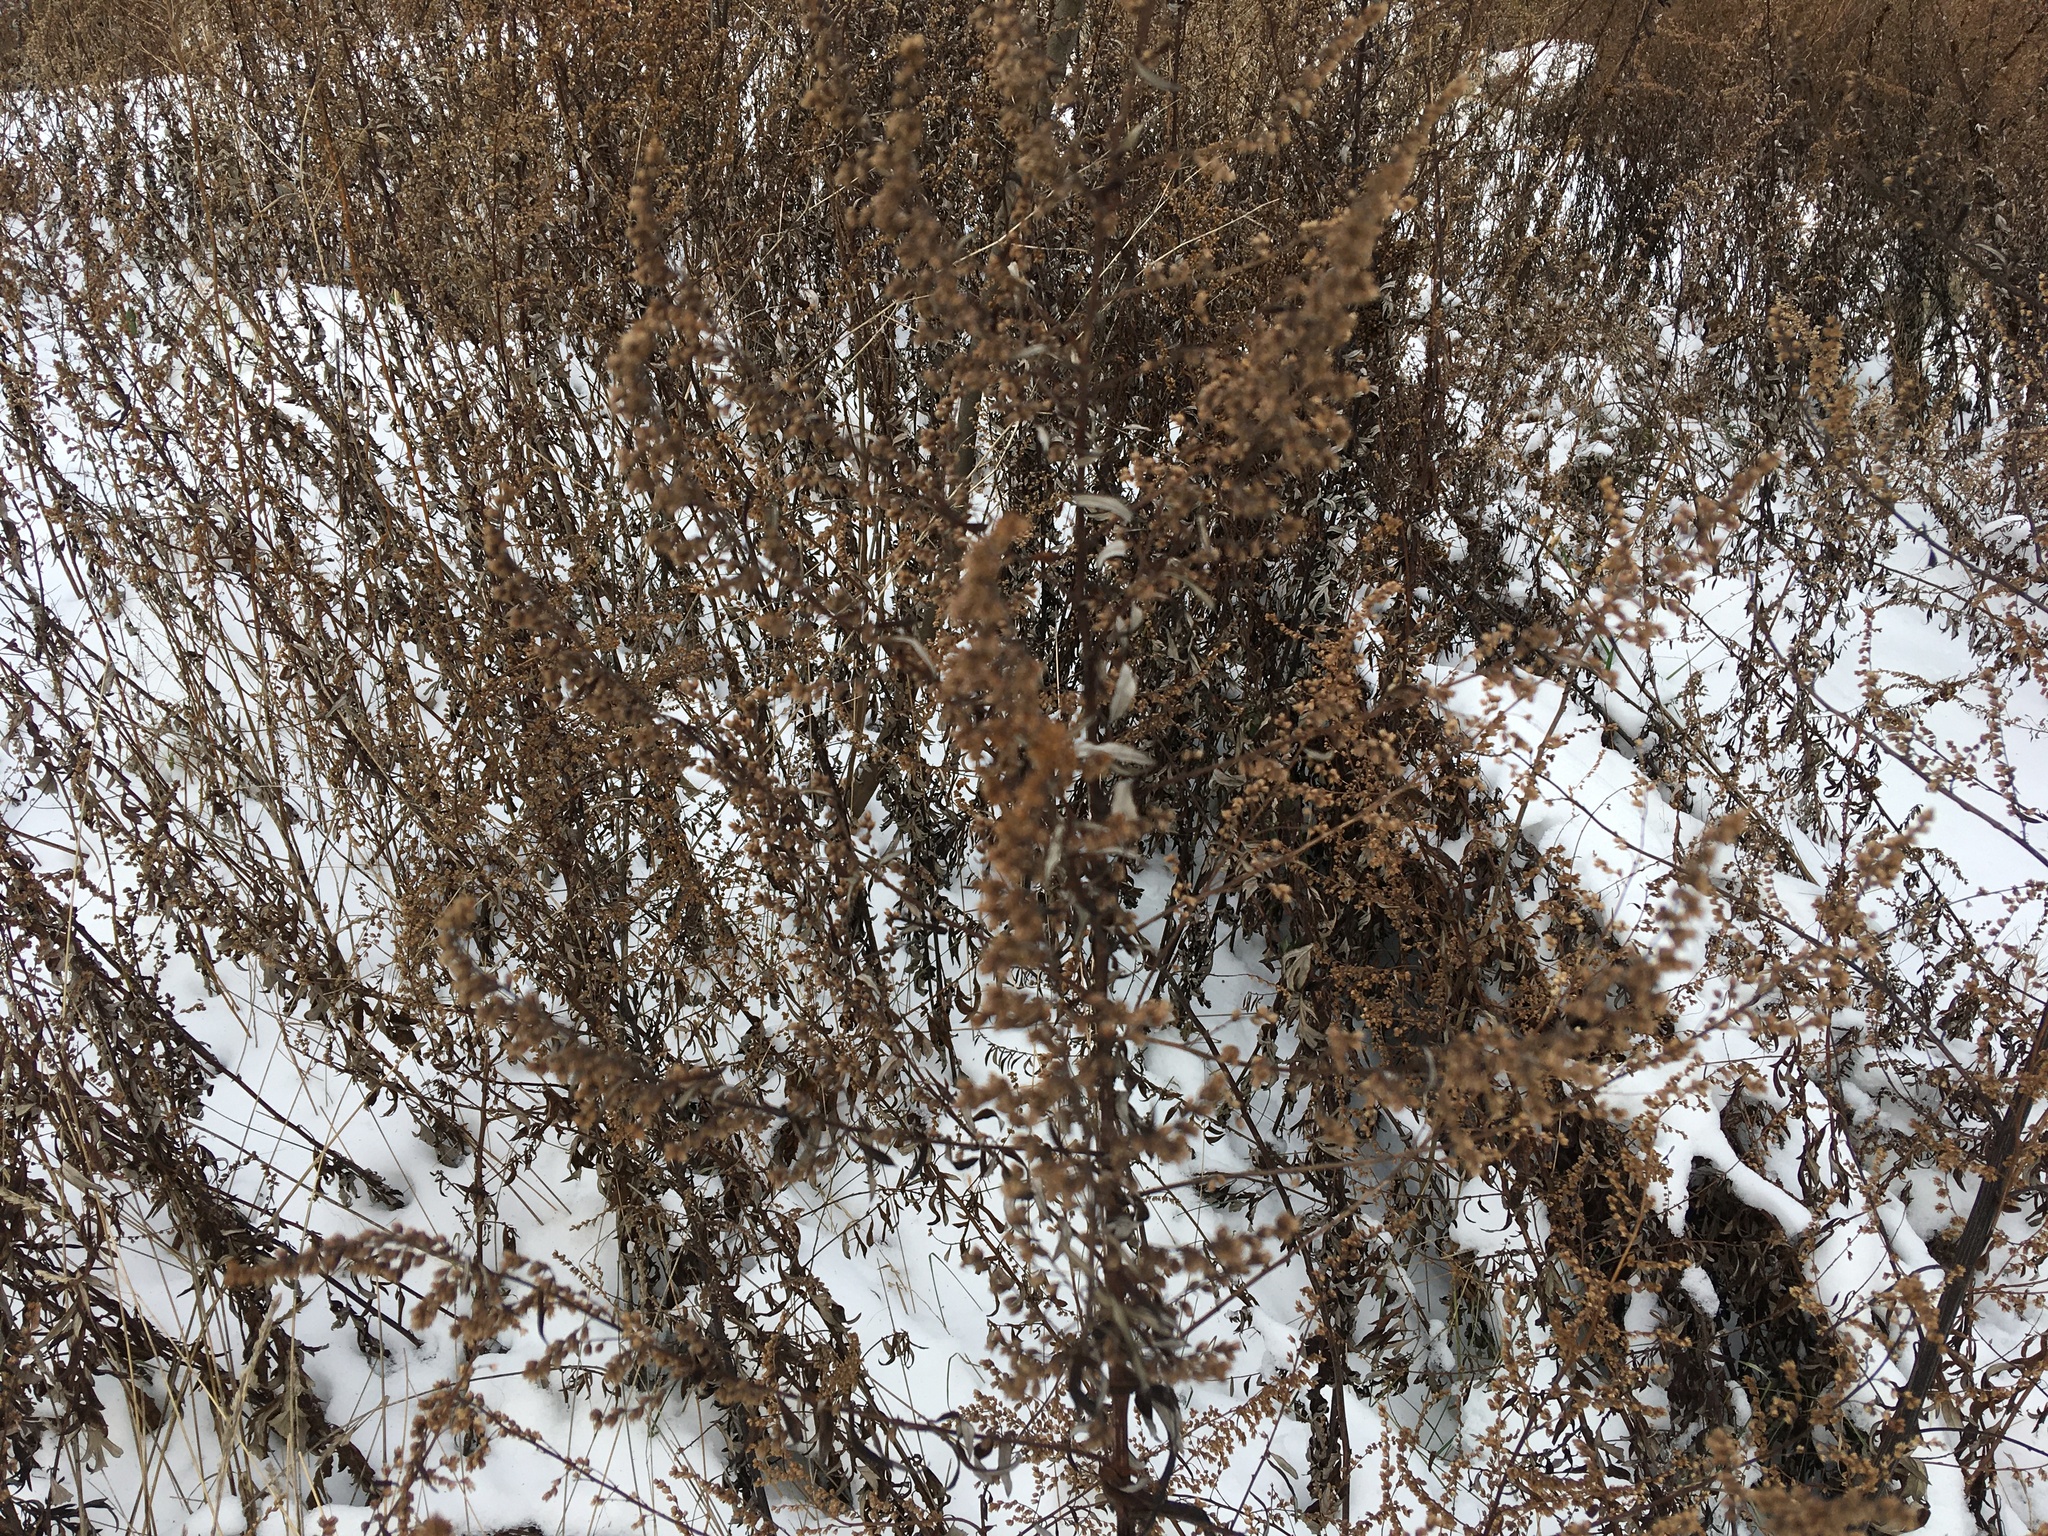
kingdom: Plantae
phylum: Tracheophyta
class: Magnoliopsida
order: Asterales
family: Asteraceae
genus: Artemisia
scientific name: Artemisia vulgaris
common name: Mugwort
